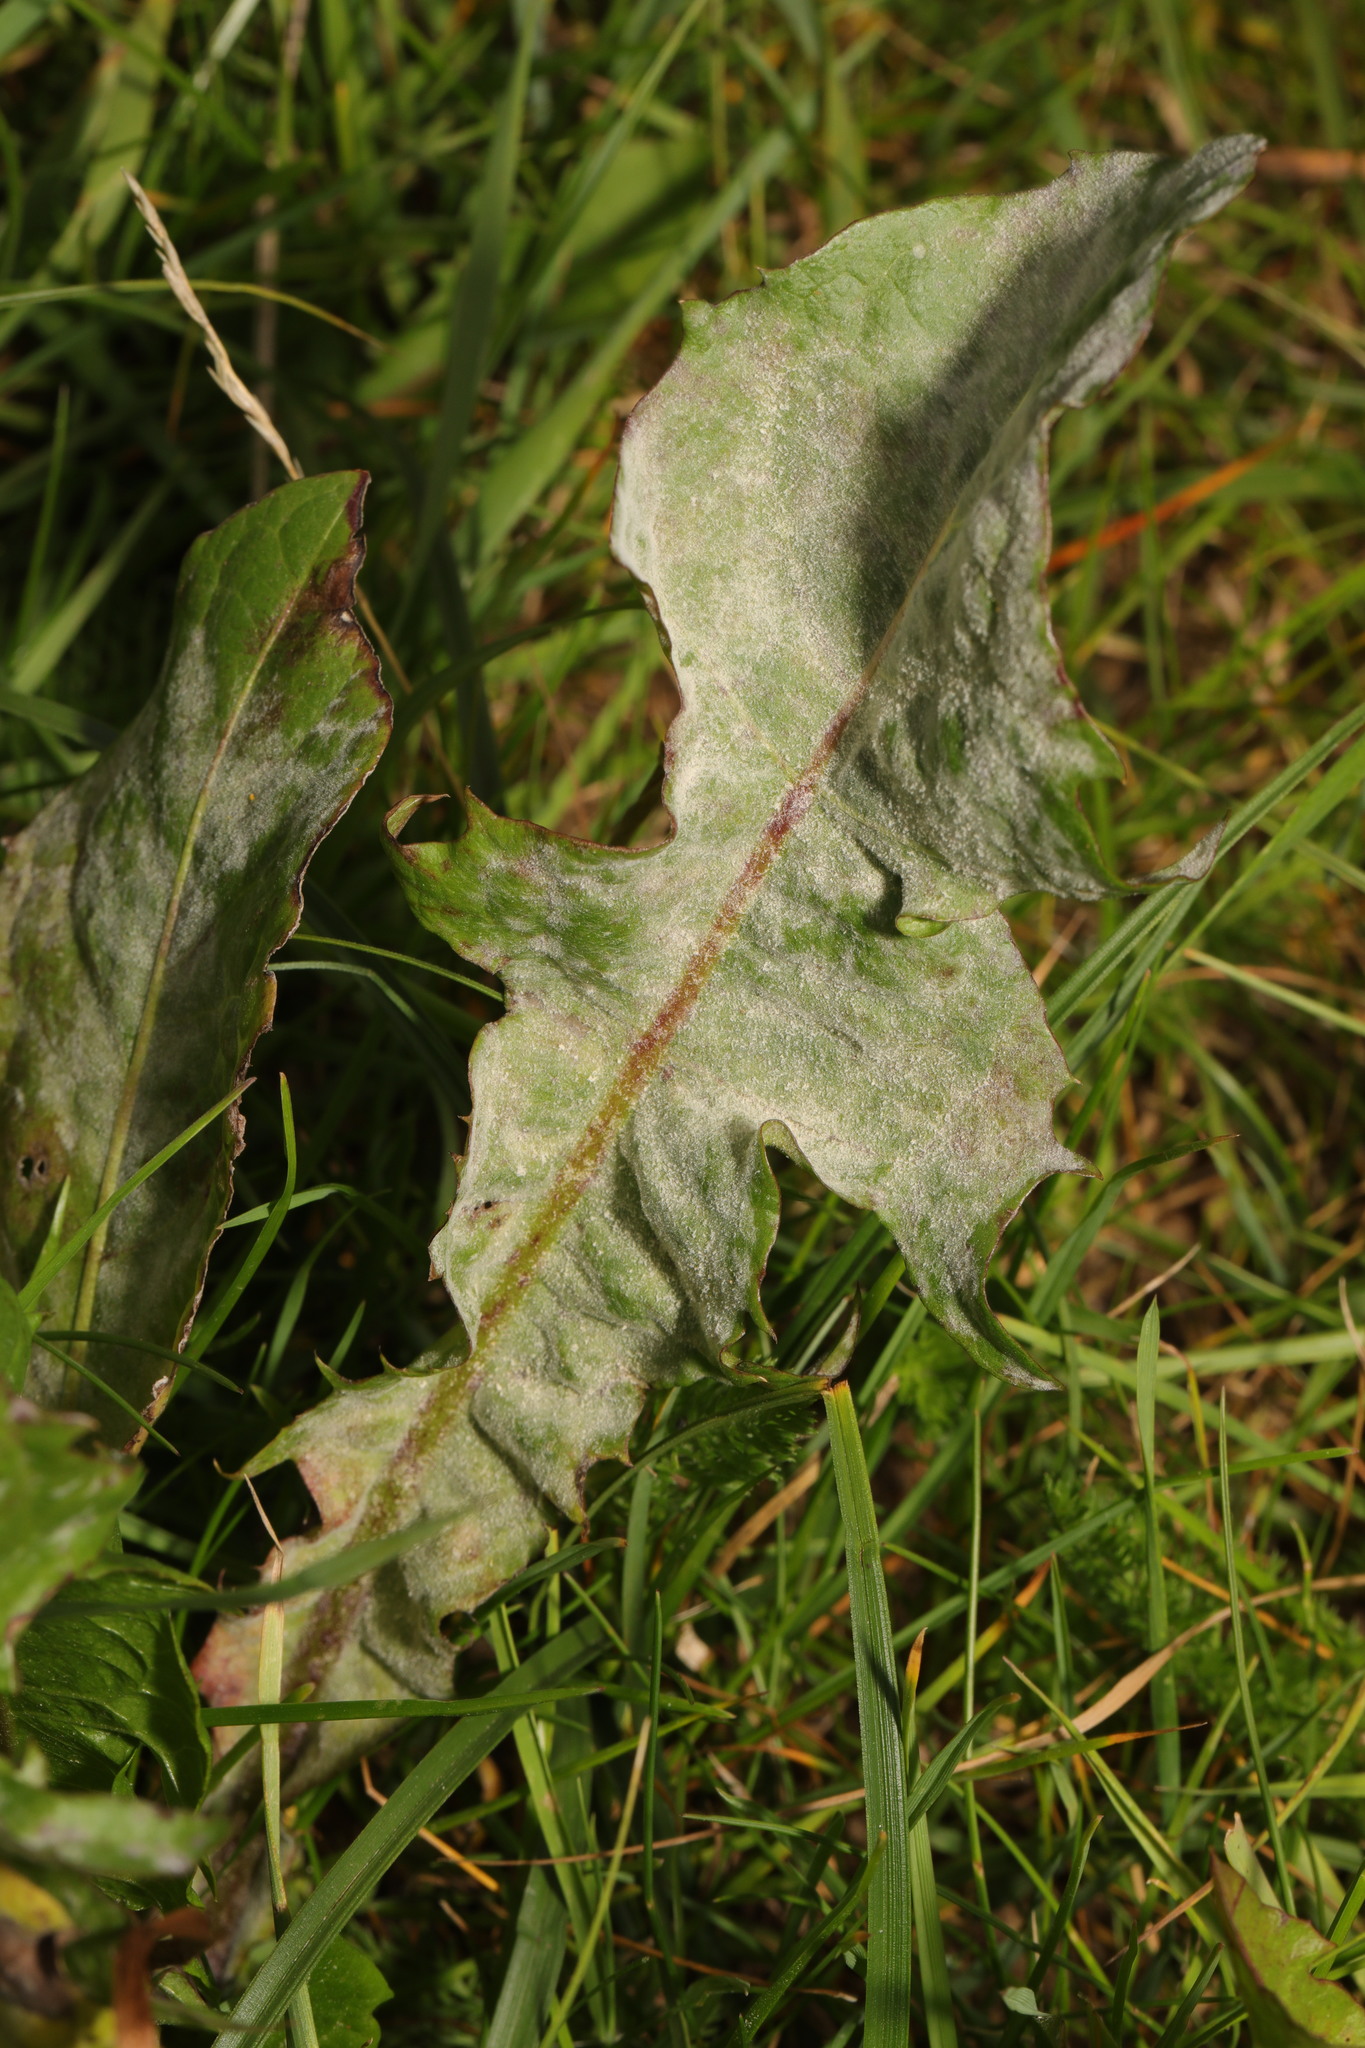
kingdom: Plantae
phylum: Tracheophyta
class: Magnoliopsida
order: Asterales
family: Asteraceae
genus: Taraxacum
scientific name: Taraxacum officinale
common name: Common dandelion
